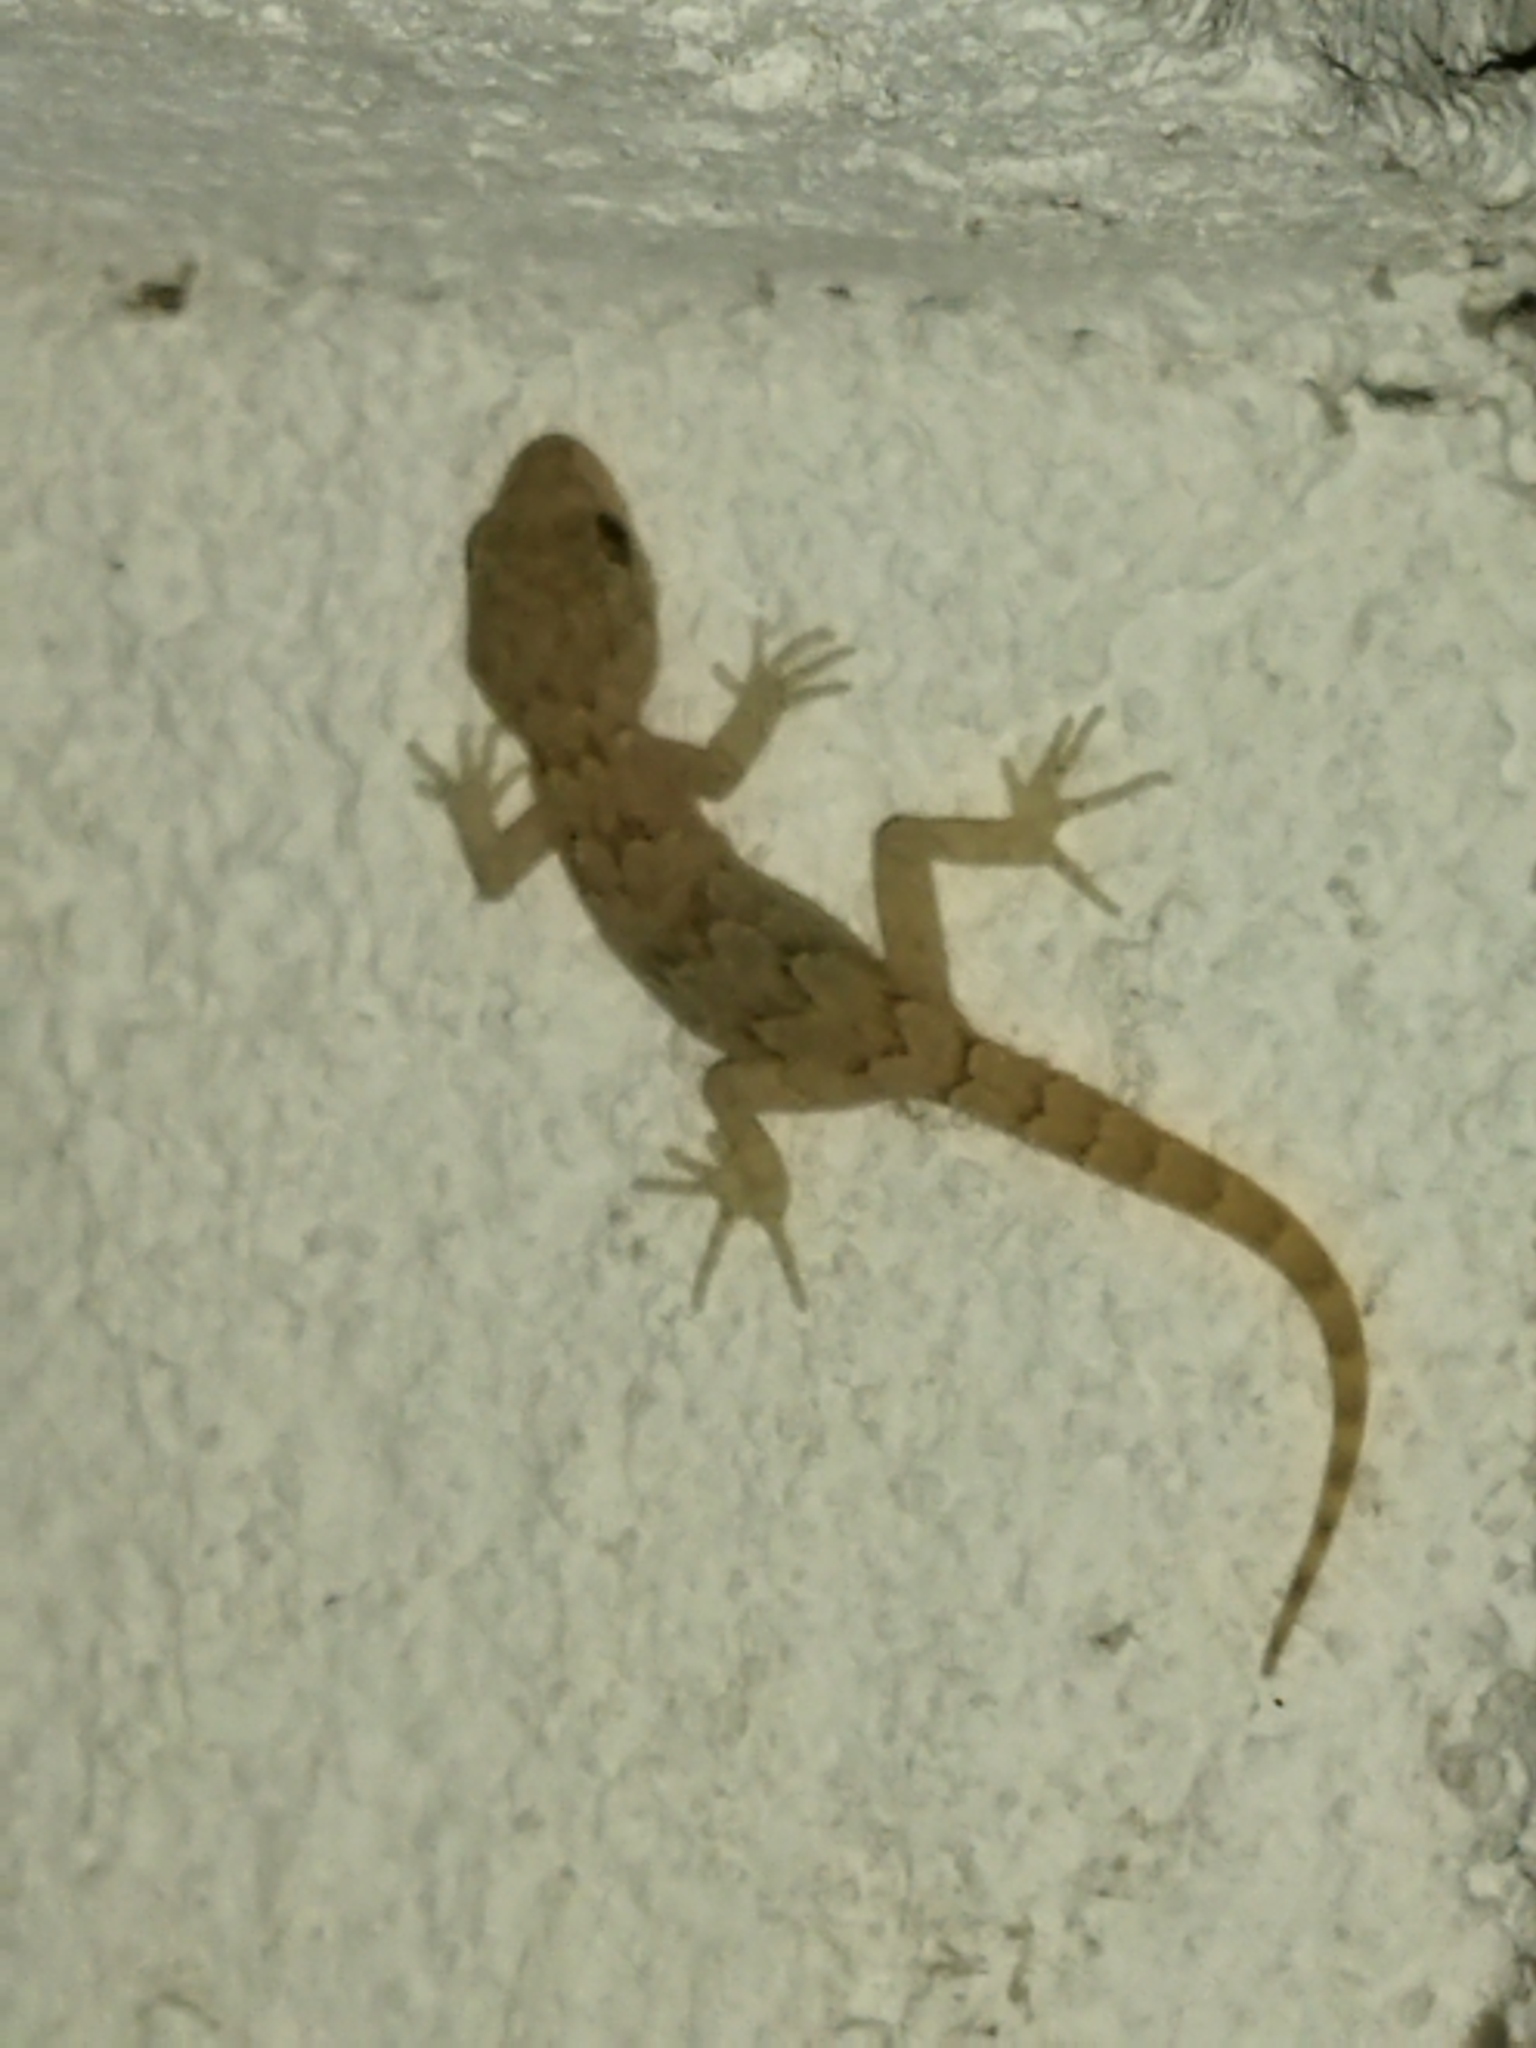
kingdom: Animalia
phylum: Chordata
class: Squamata
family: Gekkonidae
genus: Mediodactylus
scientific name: Mediodactylus kotschyi
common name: Kotschy's gecko
